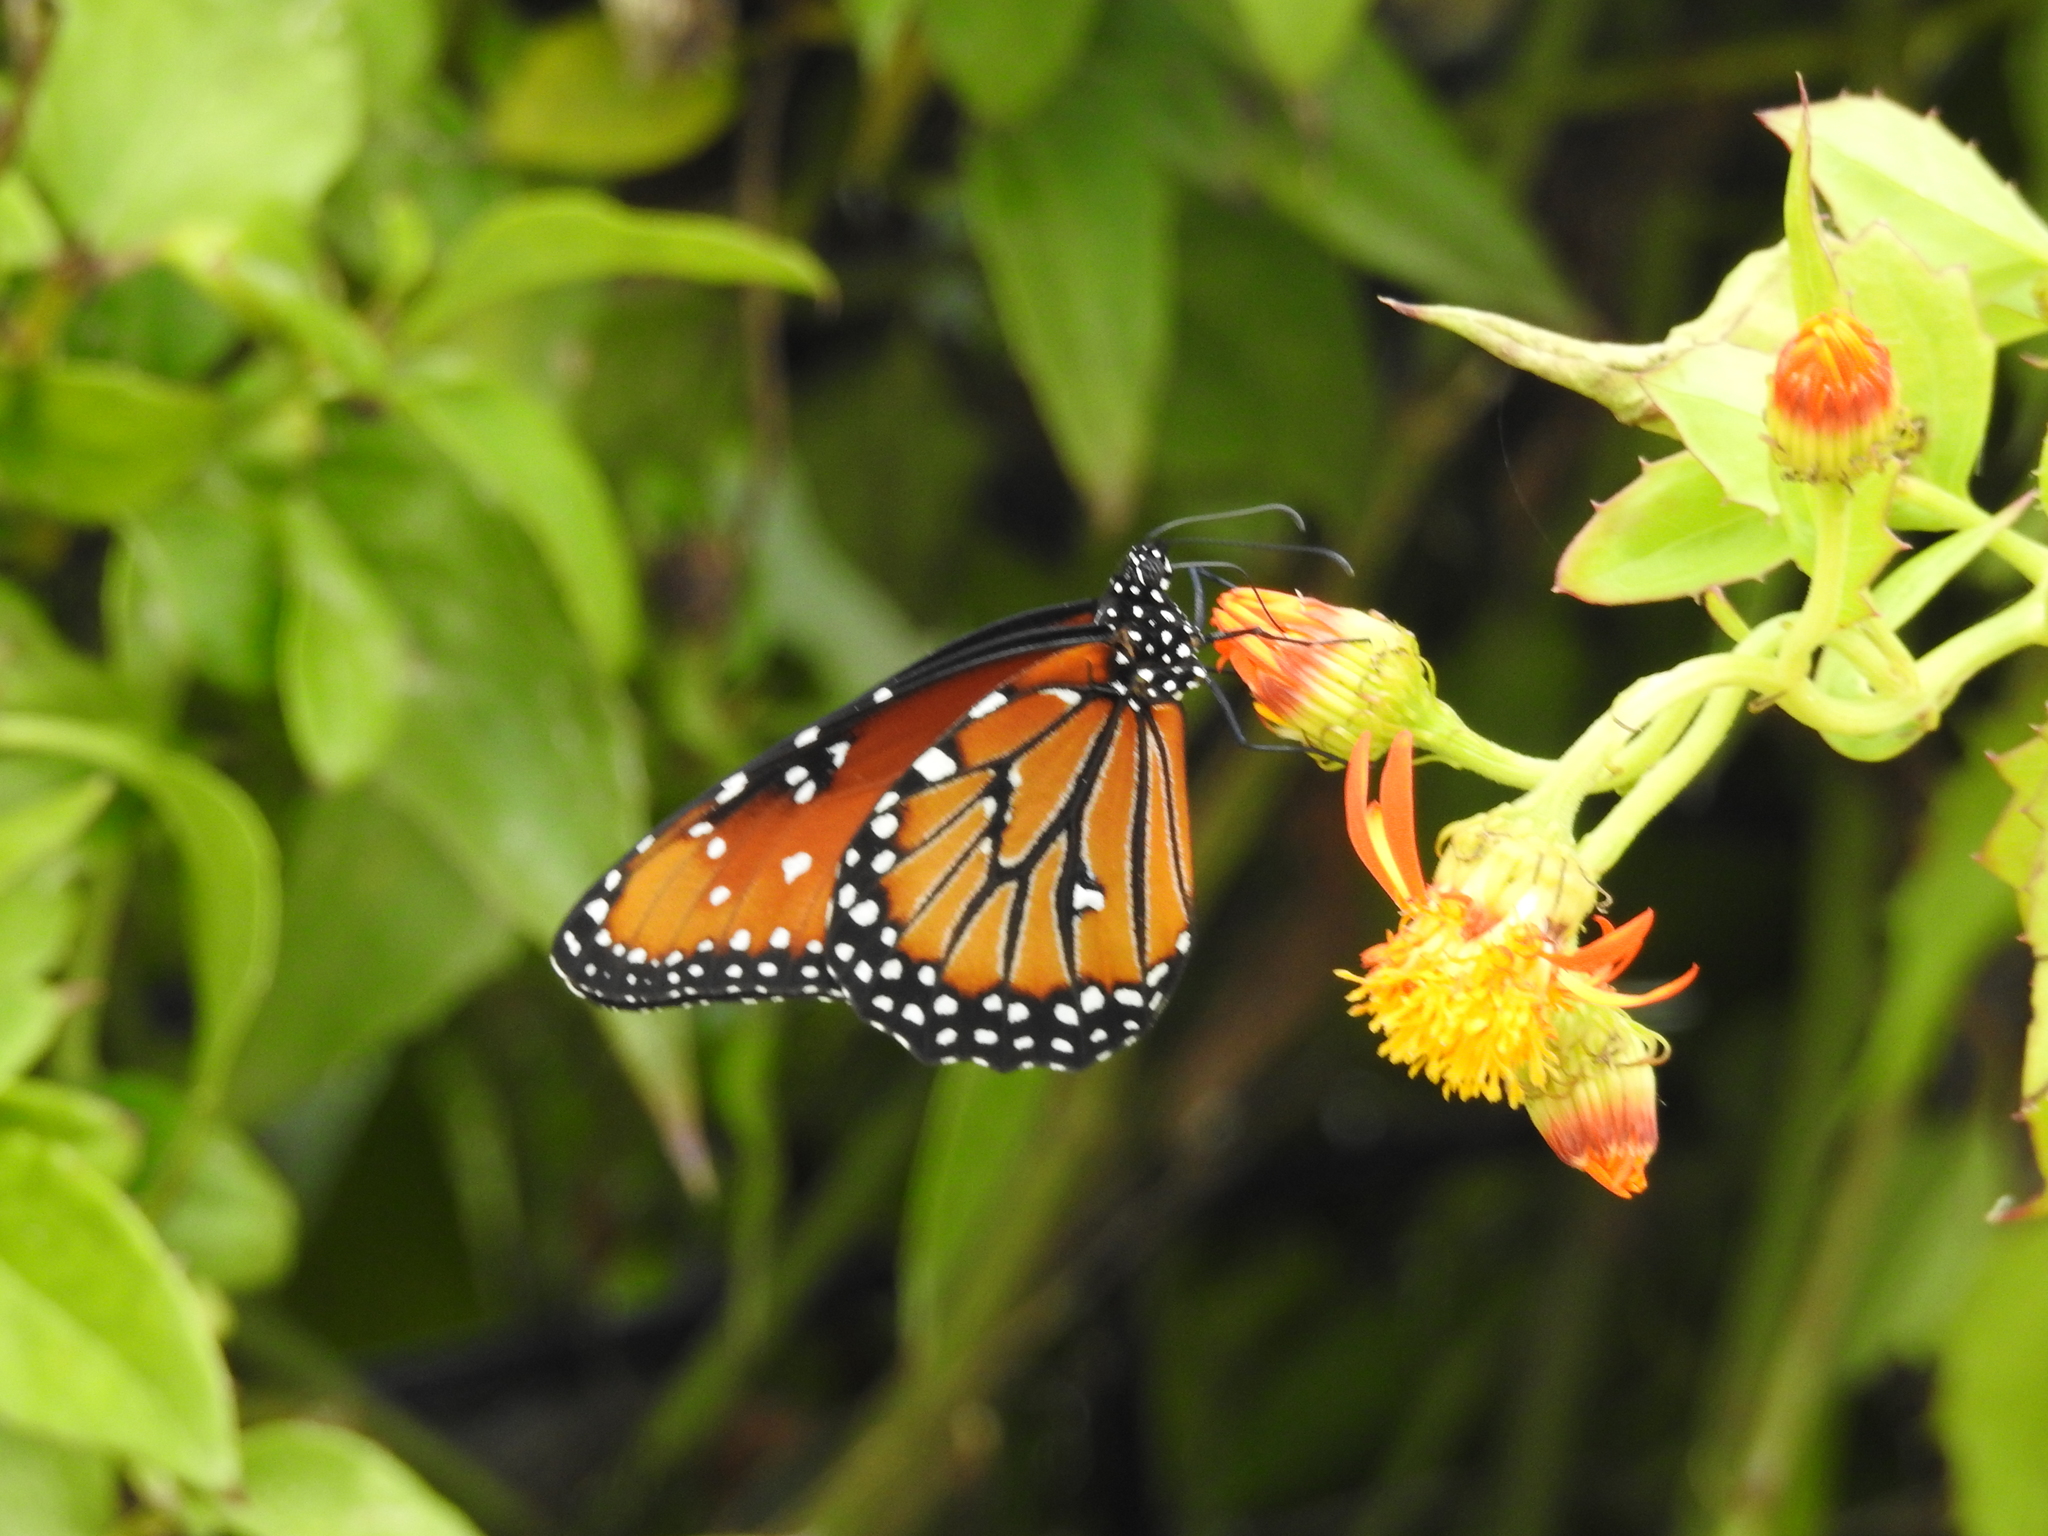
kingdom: Animalia
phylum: Arthropoda
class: Insecta
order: Lepidoptera
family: Nymphalidae
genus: Danaus
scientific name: Danaus gilippus
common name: Queen
